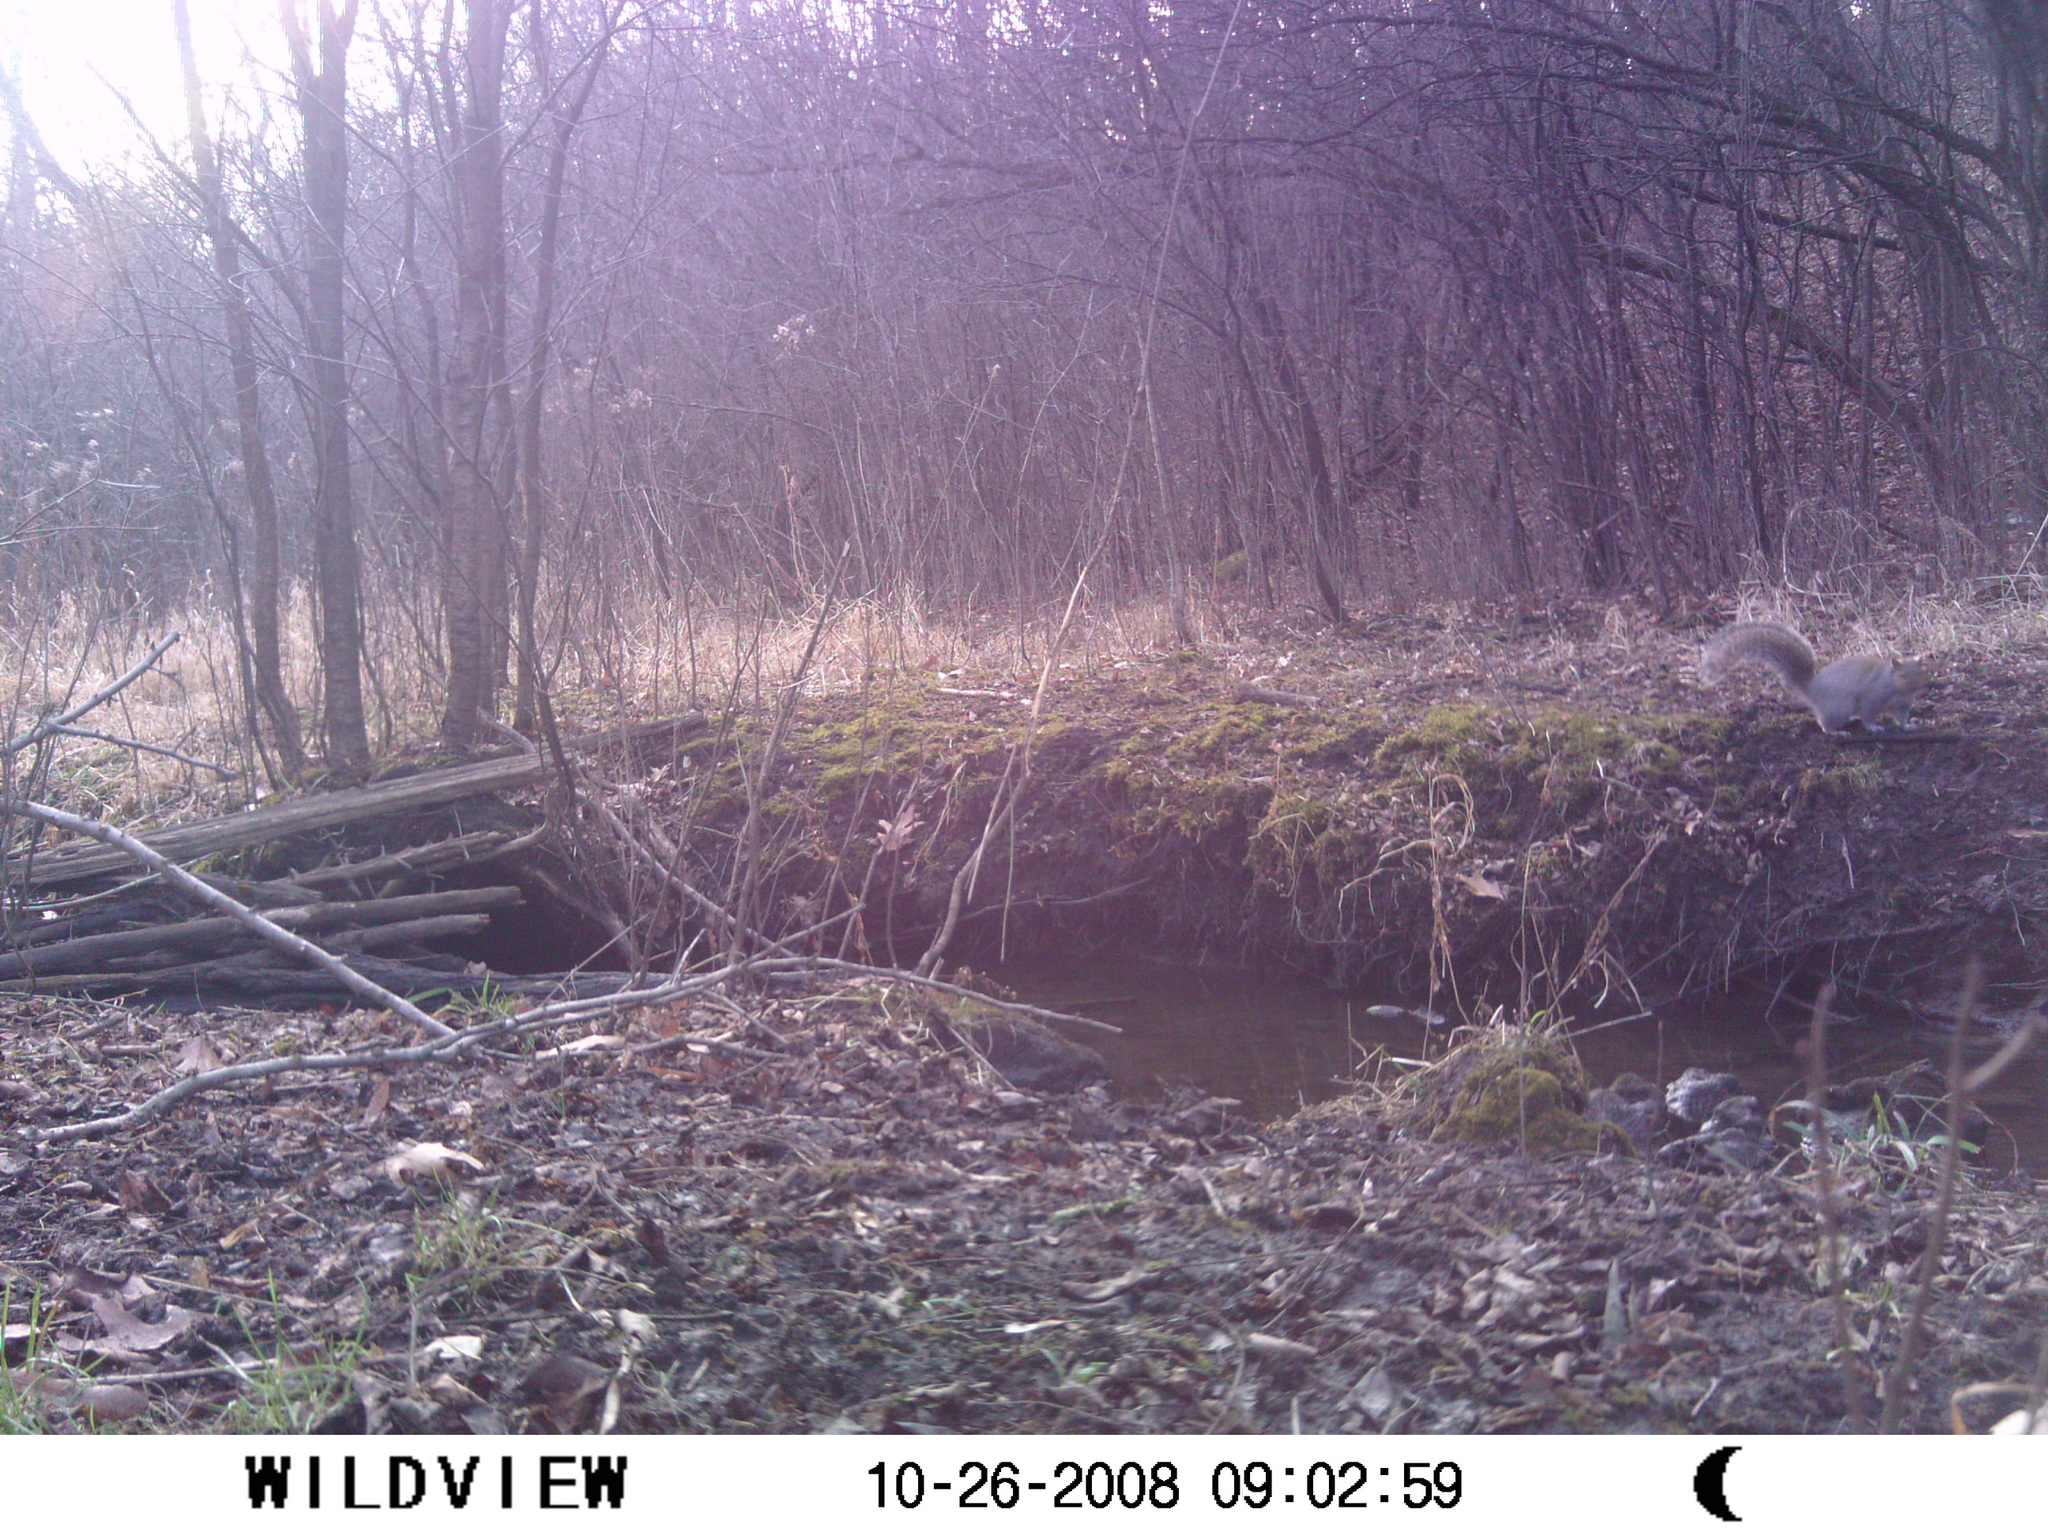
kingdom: Animalia
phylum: Chordata
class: Mammalia
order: Rodentia
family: Sciuridae
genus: Sciurus
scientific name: Sciurus carolinensis
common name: Eastern gray squirrel
